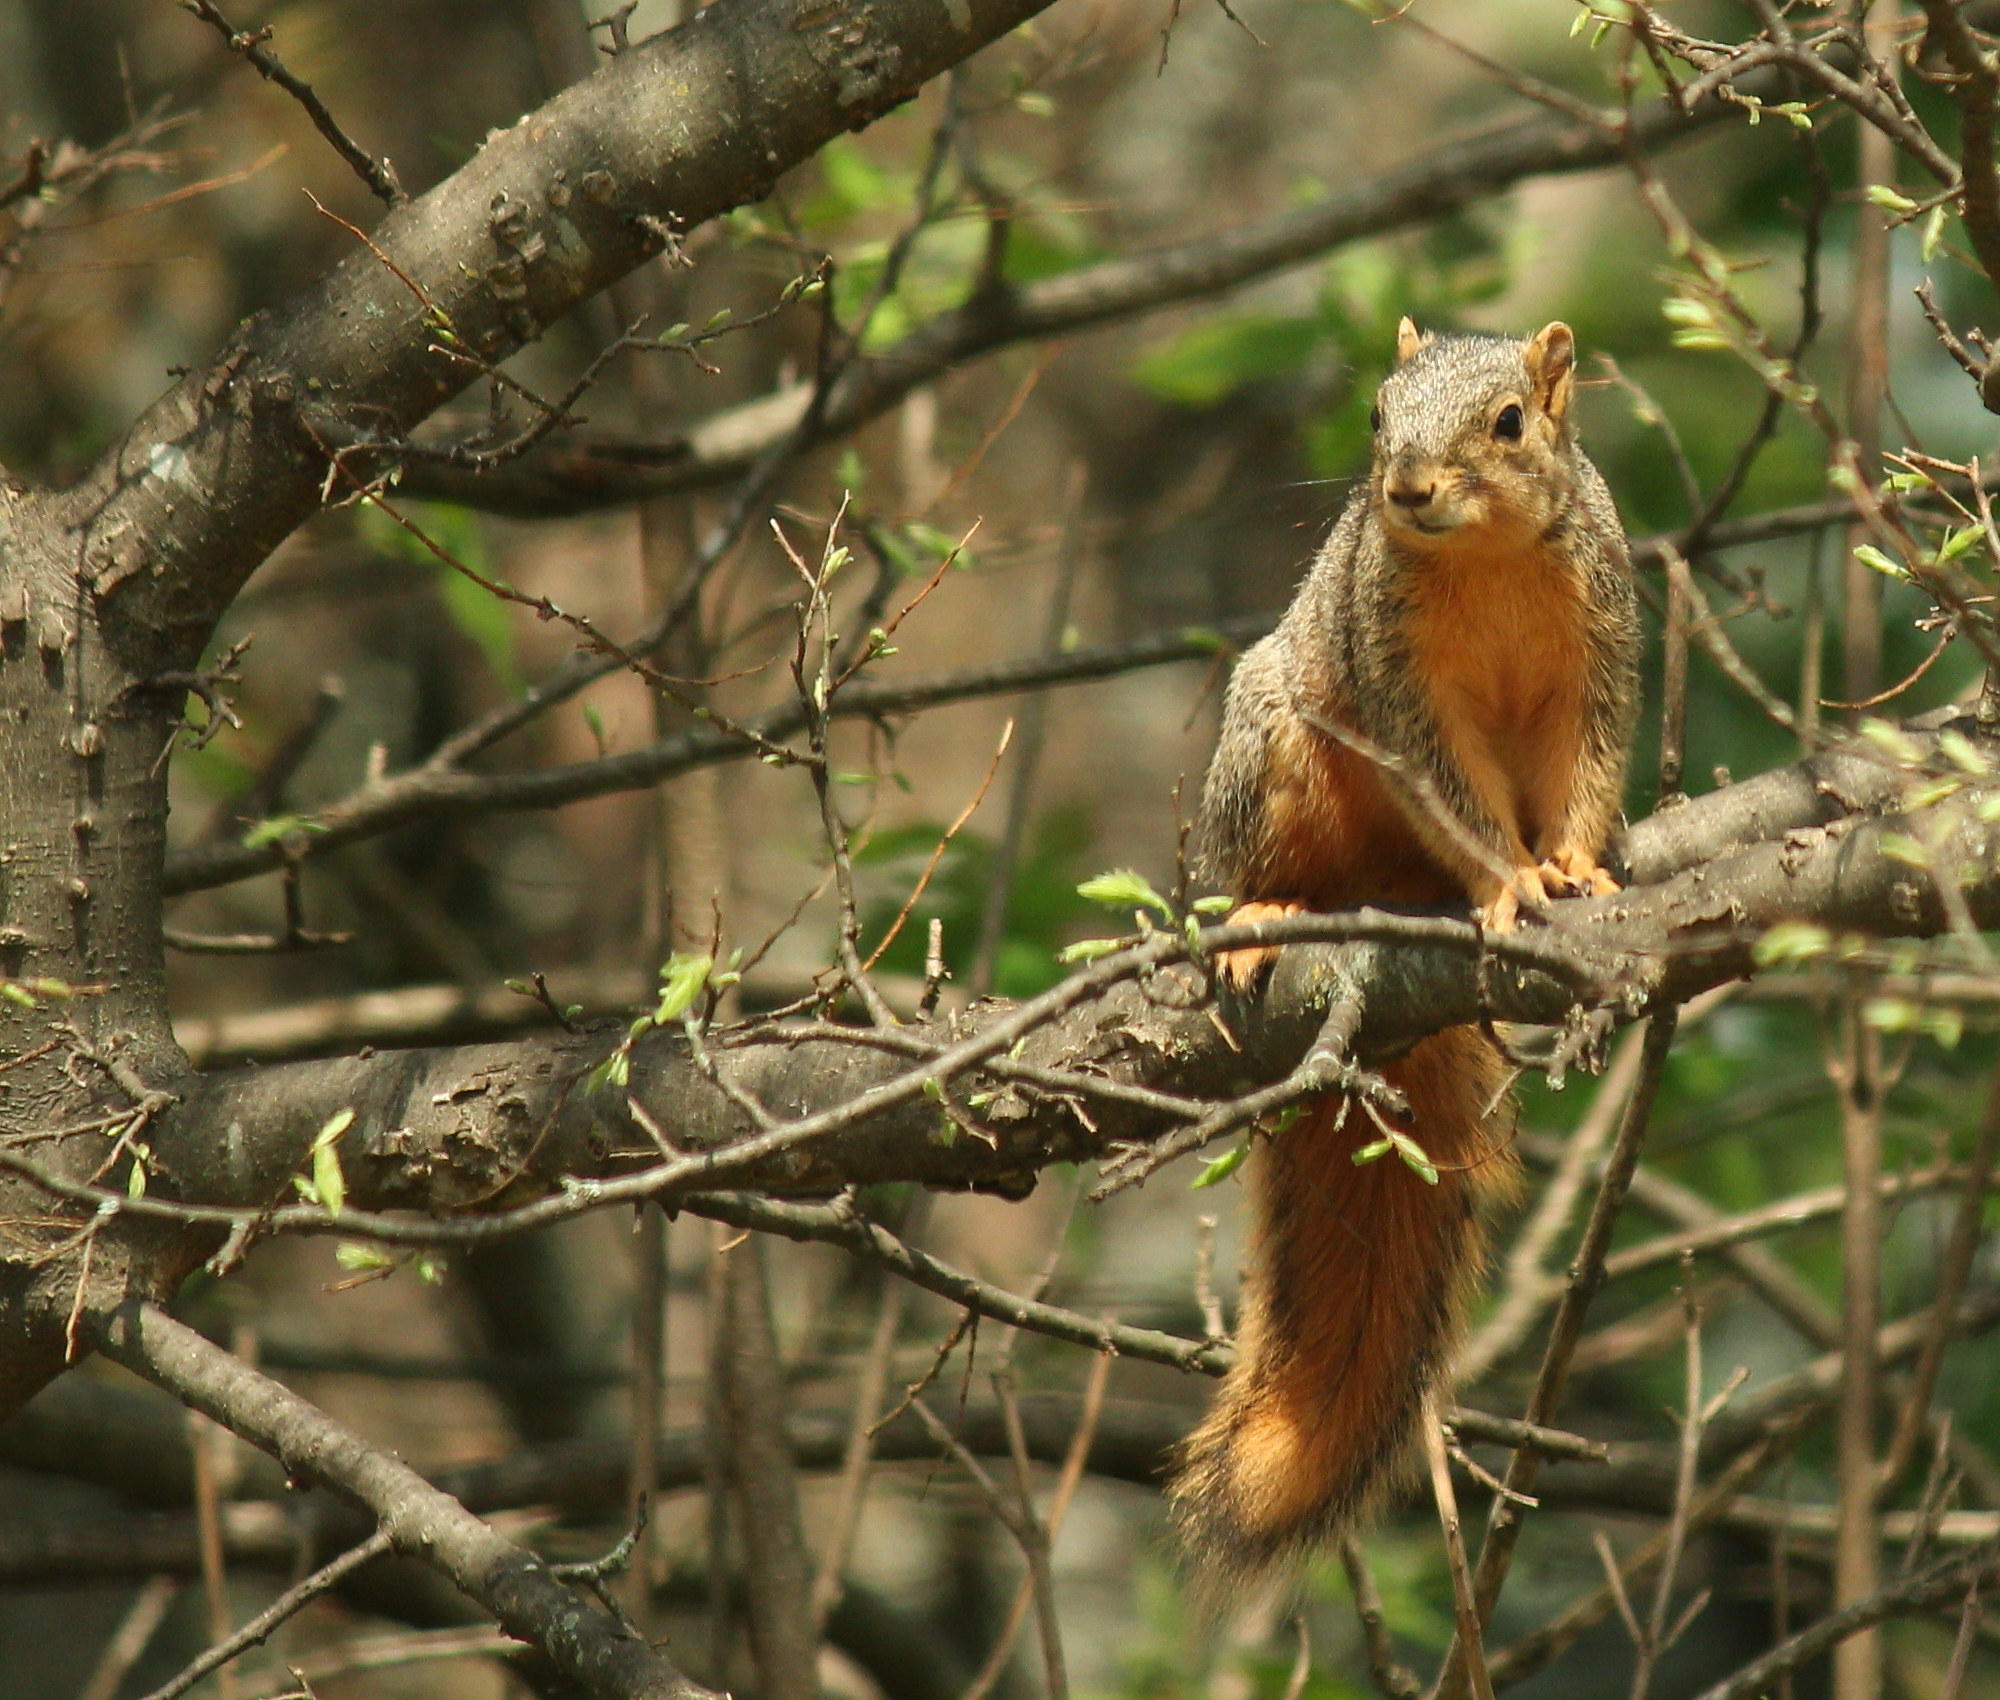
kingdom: Animalia
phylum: Chordata
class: Mammalia
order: Rodentia
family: Sciuridae
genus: Sciurus
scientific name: Sciurus niger
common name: Fox squirrel
